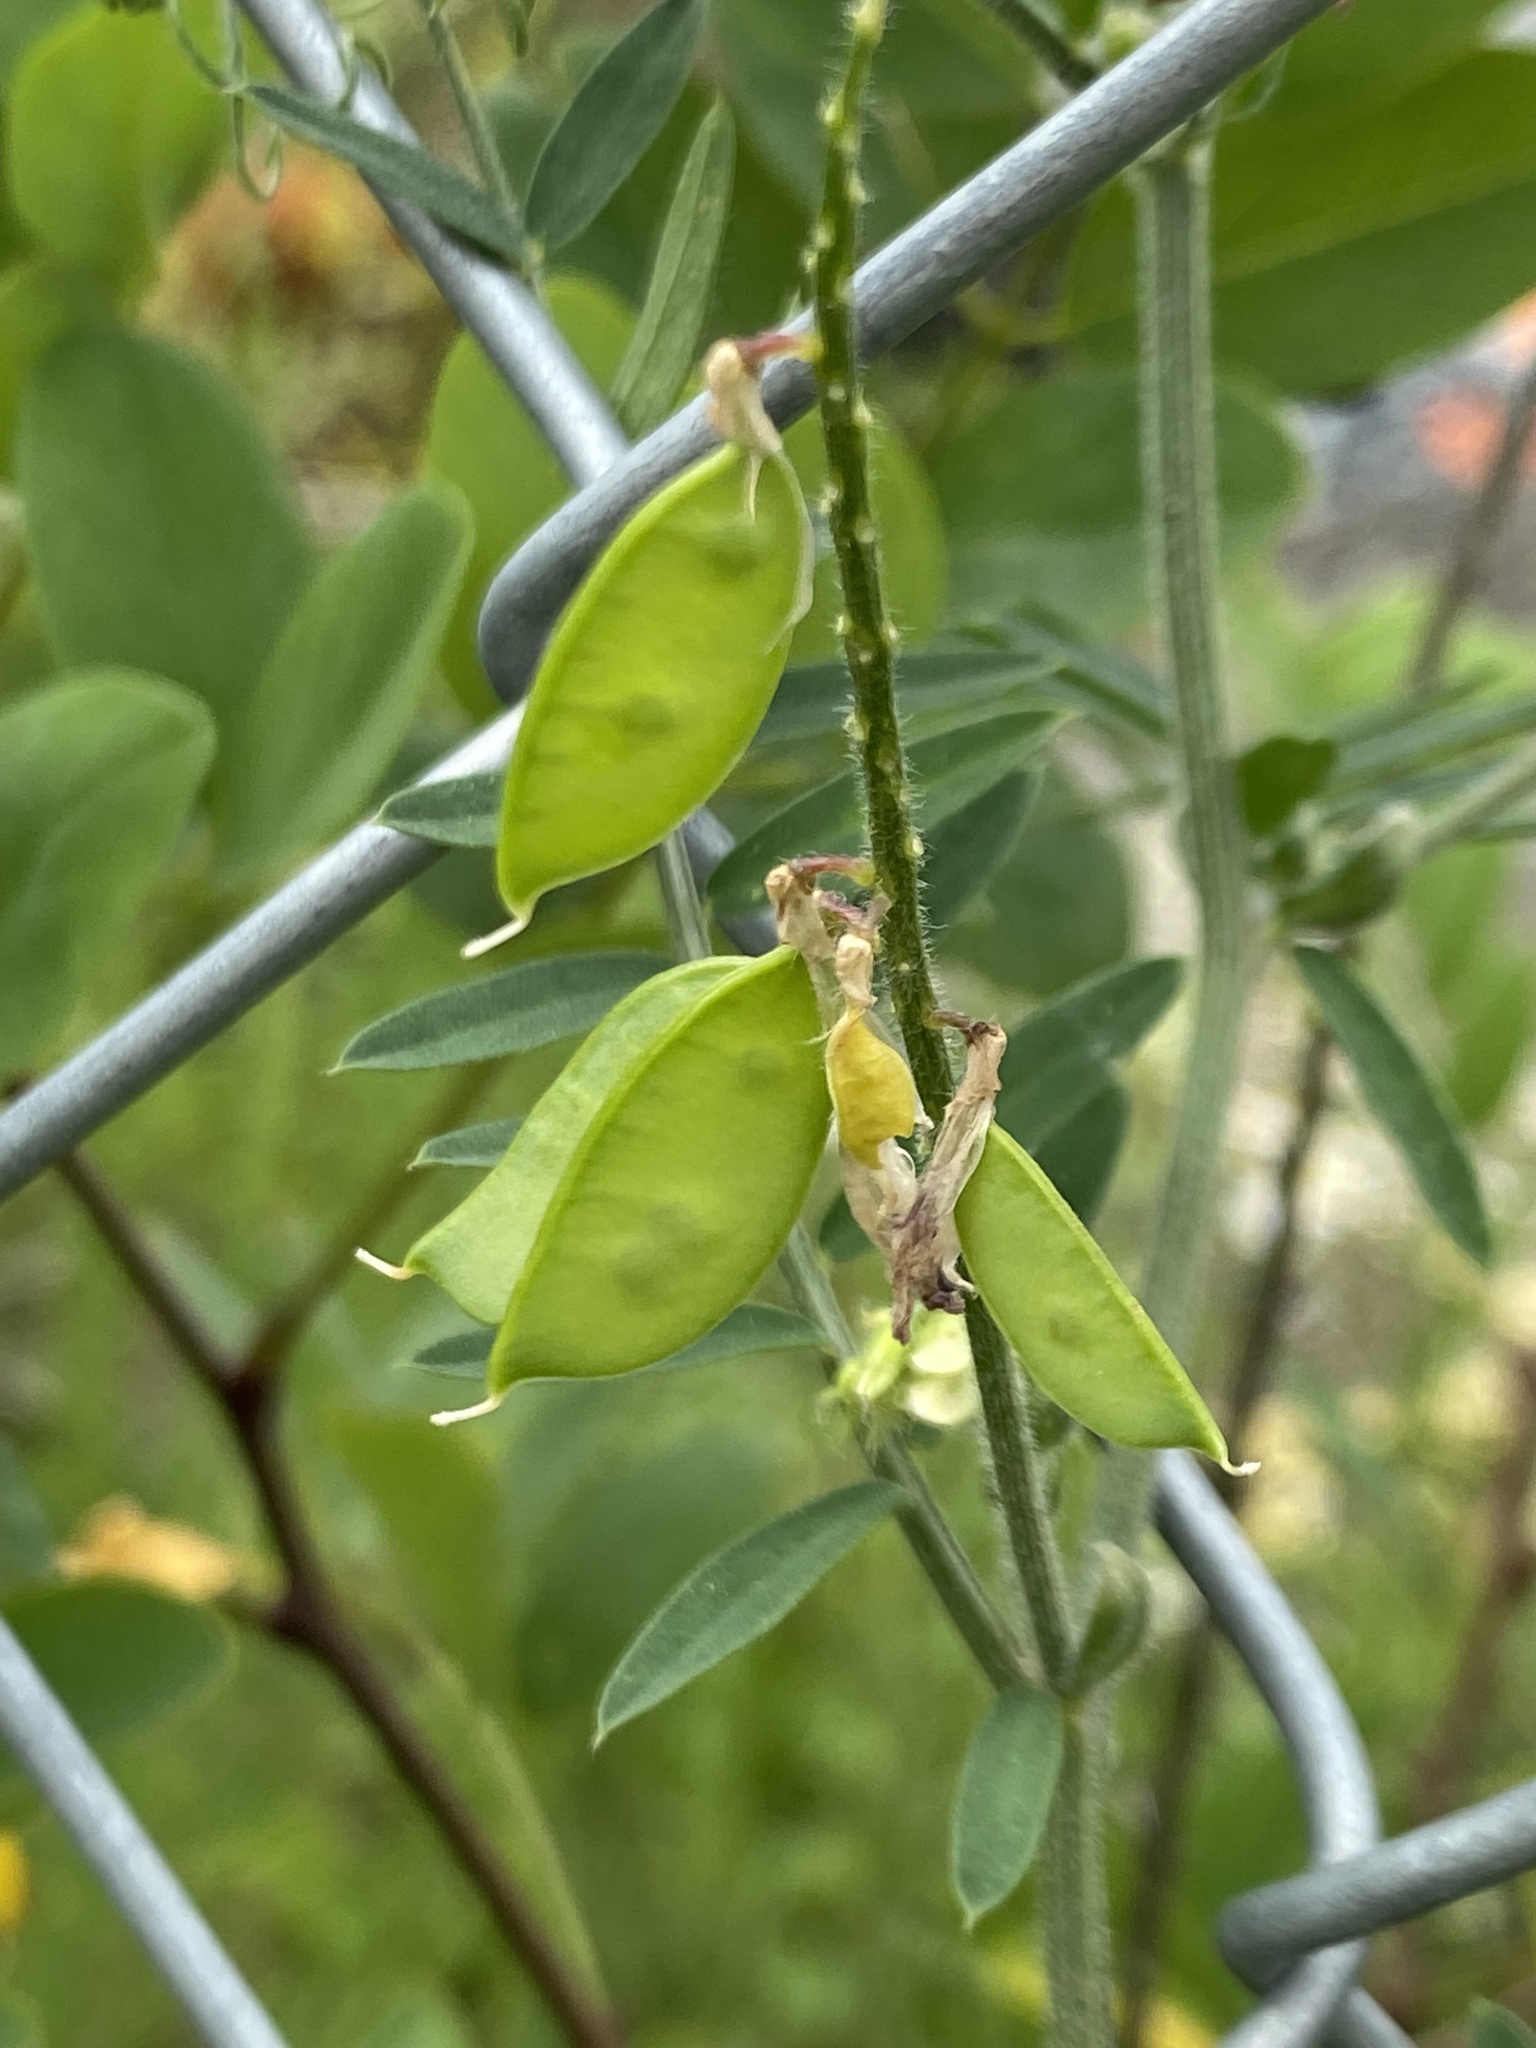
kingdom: Plantae
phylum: Tracheophyta
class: Magnoliopsida
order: Fabales
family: Fabaceae
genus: Vicia
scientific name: Vicia villosa
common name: Fodder vetch
